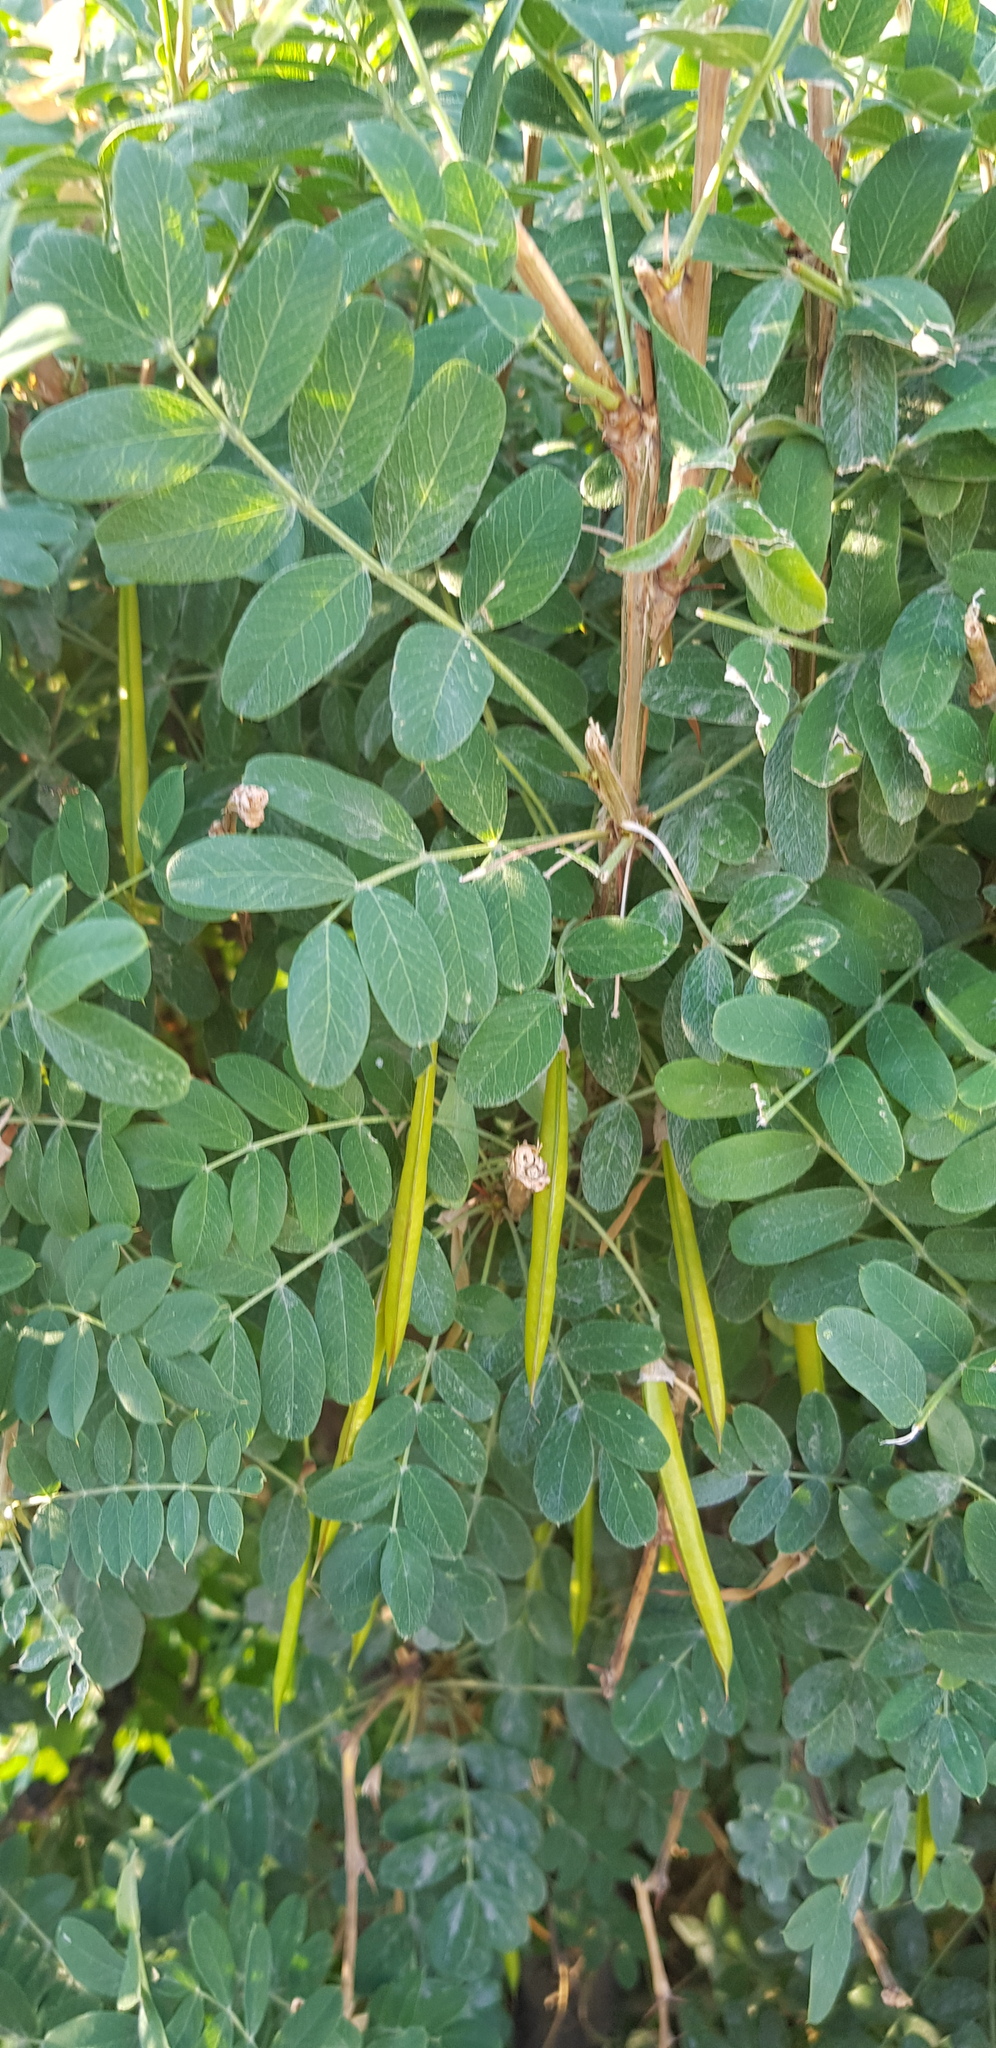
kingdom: Plantae
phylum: Tracheophyta
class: Magnoliopsida
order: Fabales
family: Fabaceae
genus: Caragana
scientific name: Caragana arborescens
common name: Siberian peashrub
